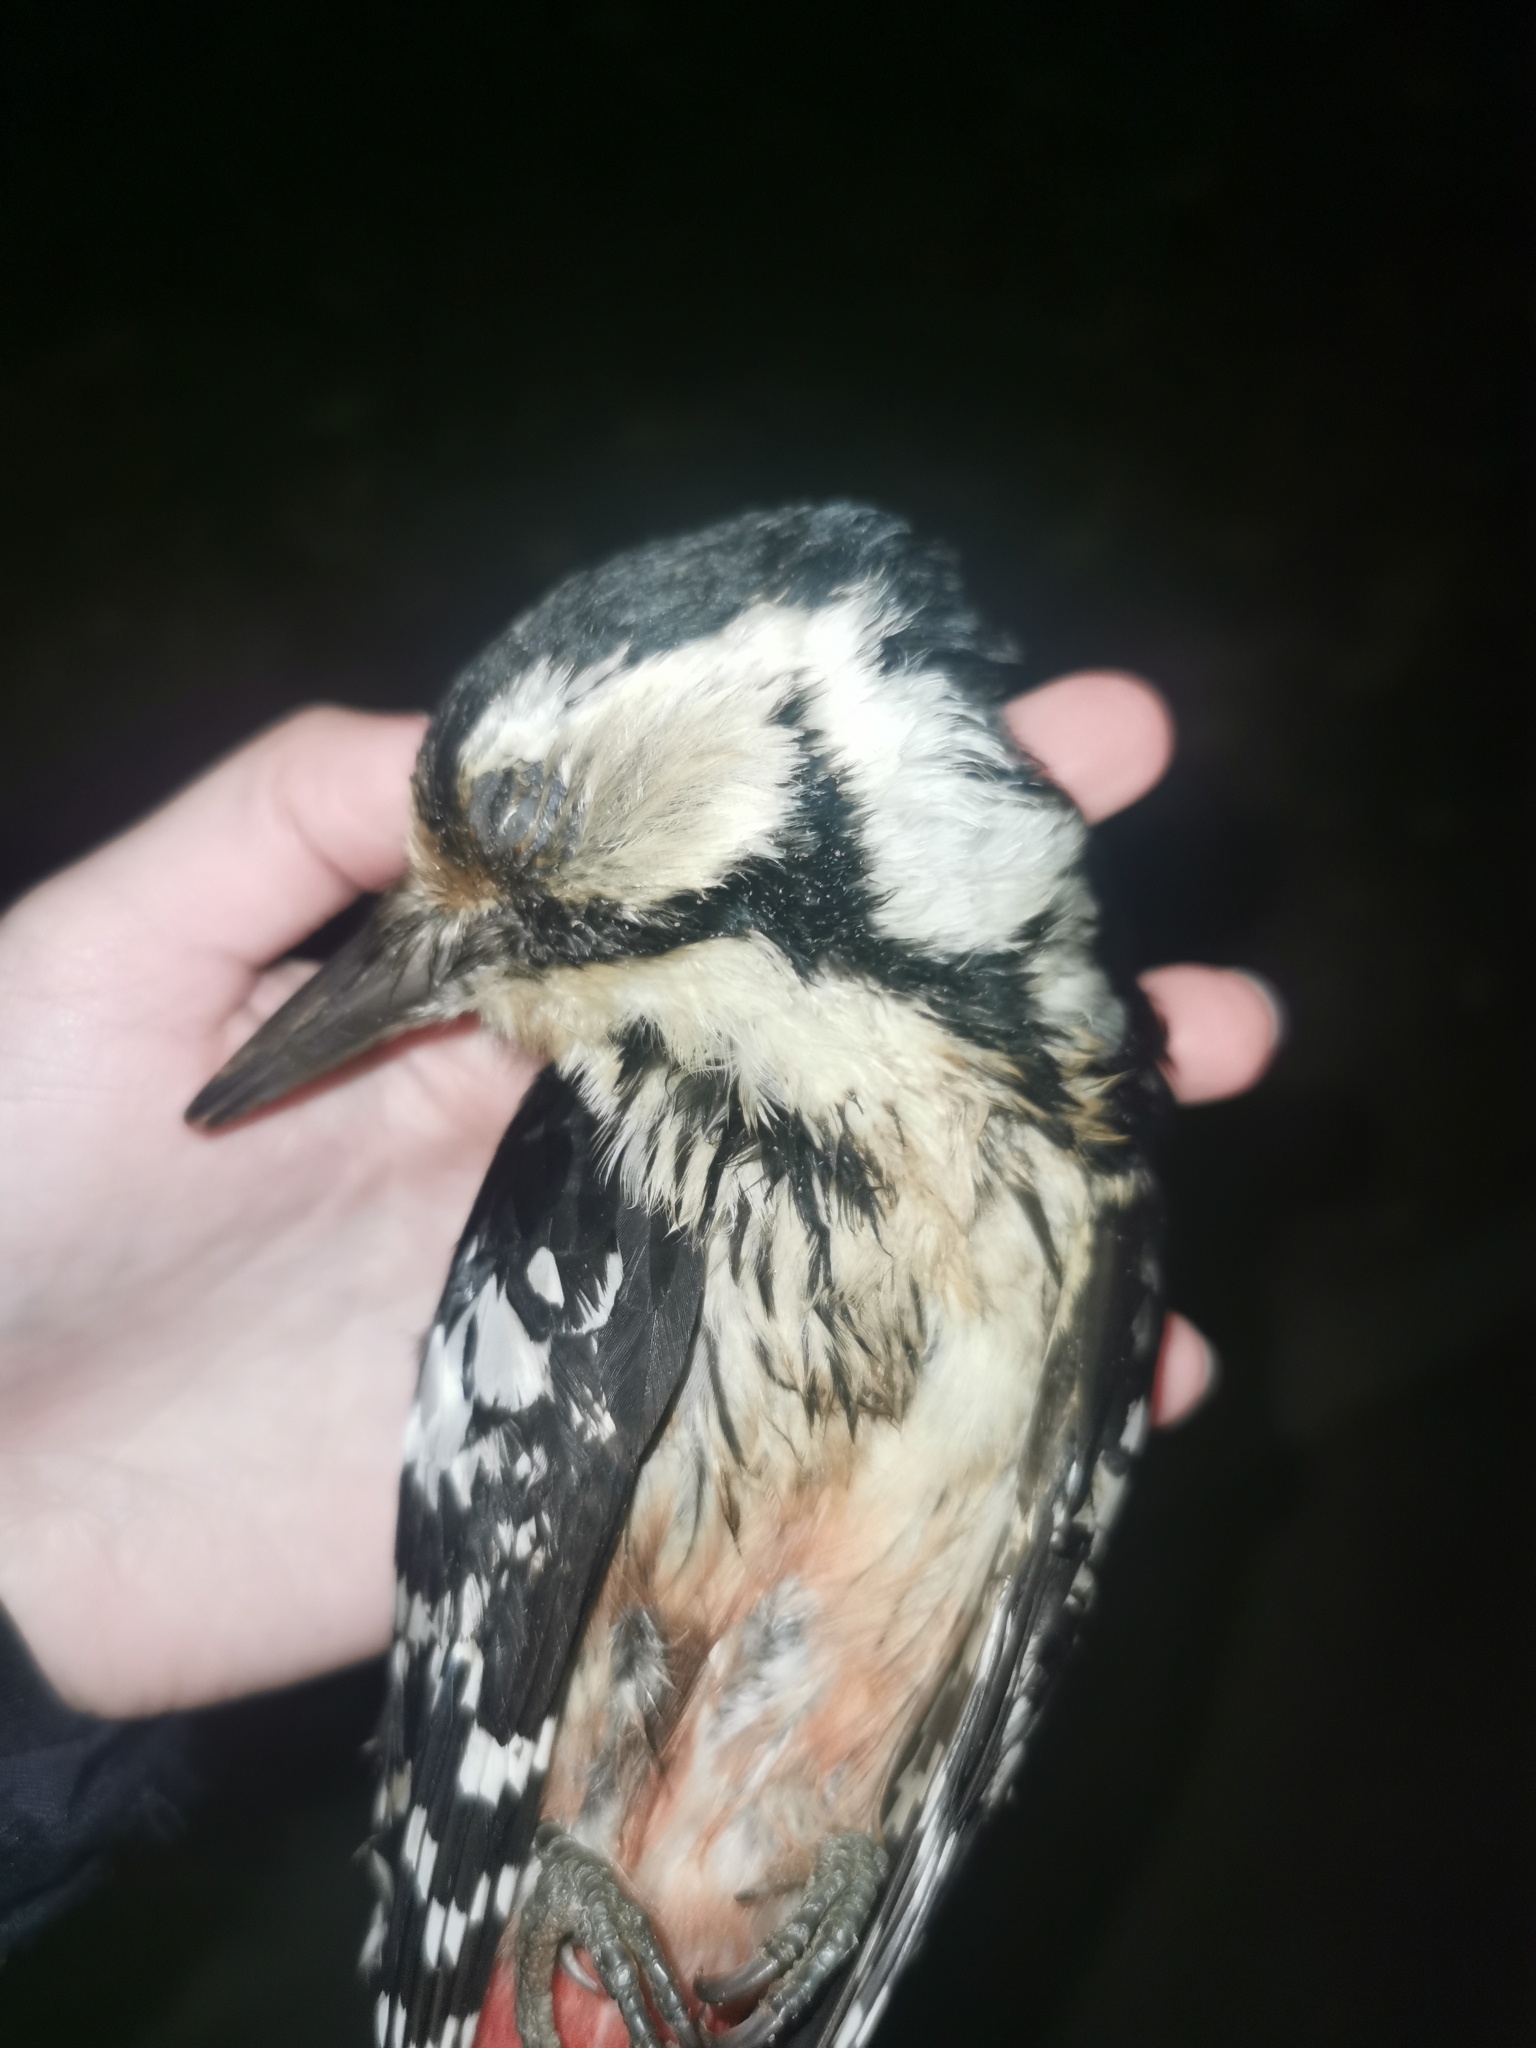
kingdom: Animalia
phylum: Chordata
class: Aves
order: Piciformes
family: Picidae
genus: Dendrocopos
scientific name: Dendrocopos leucotos
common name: White-backed woodpecker
